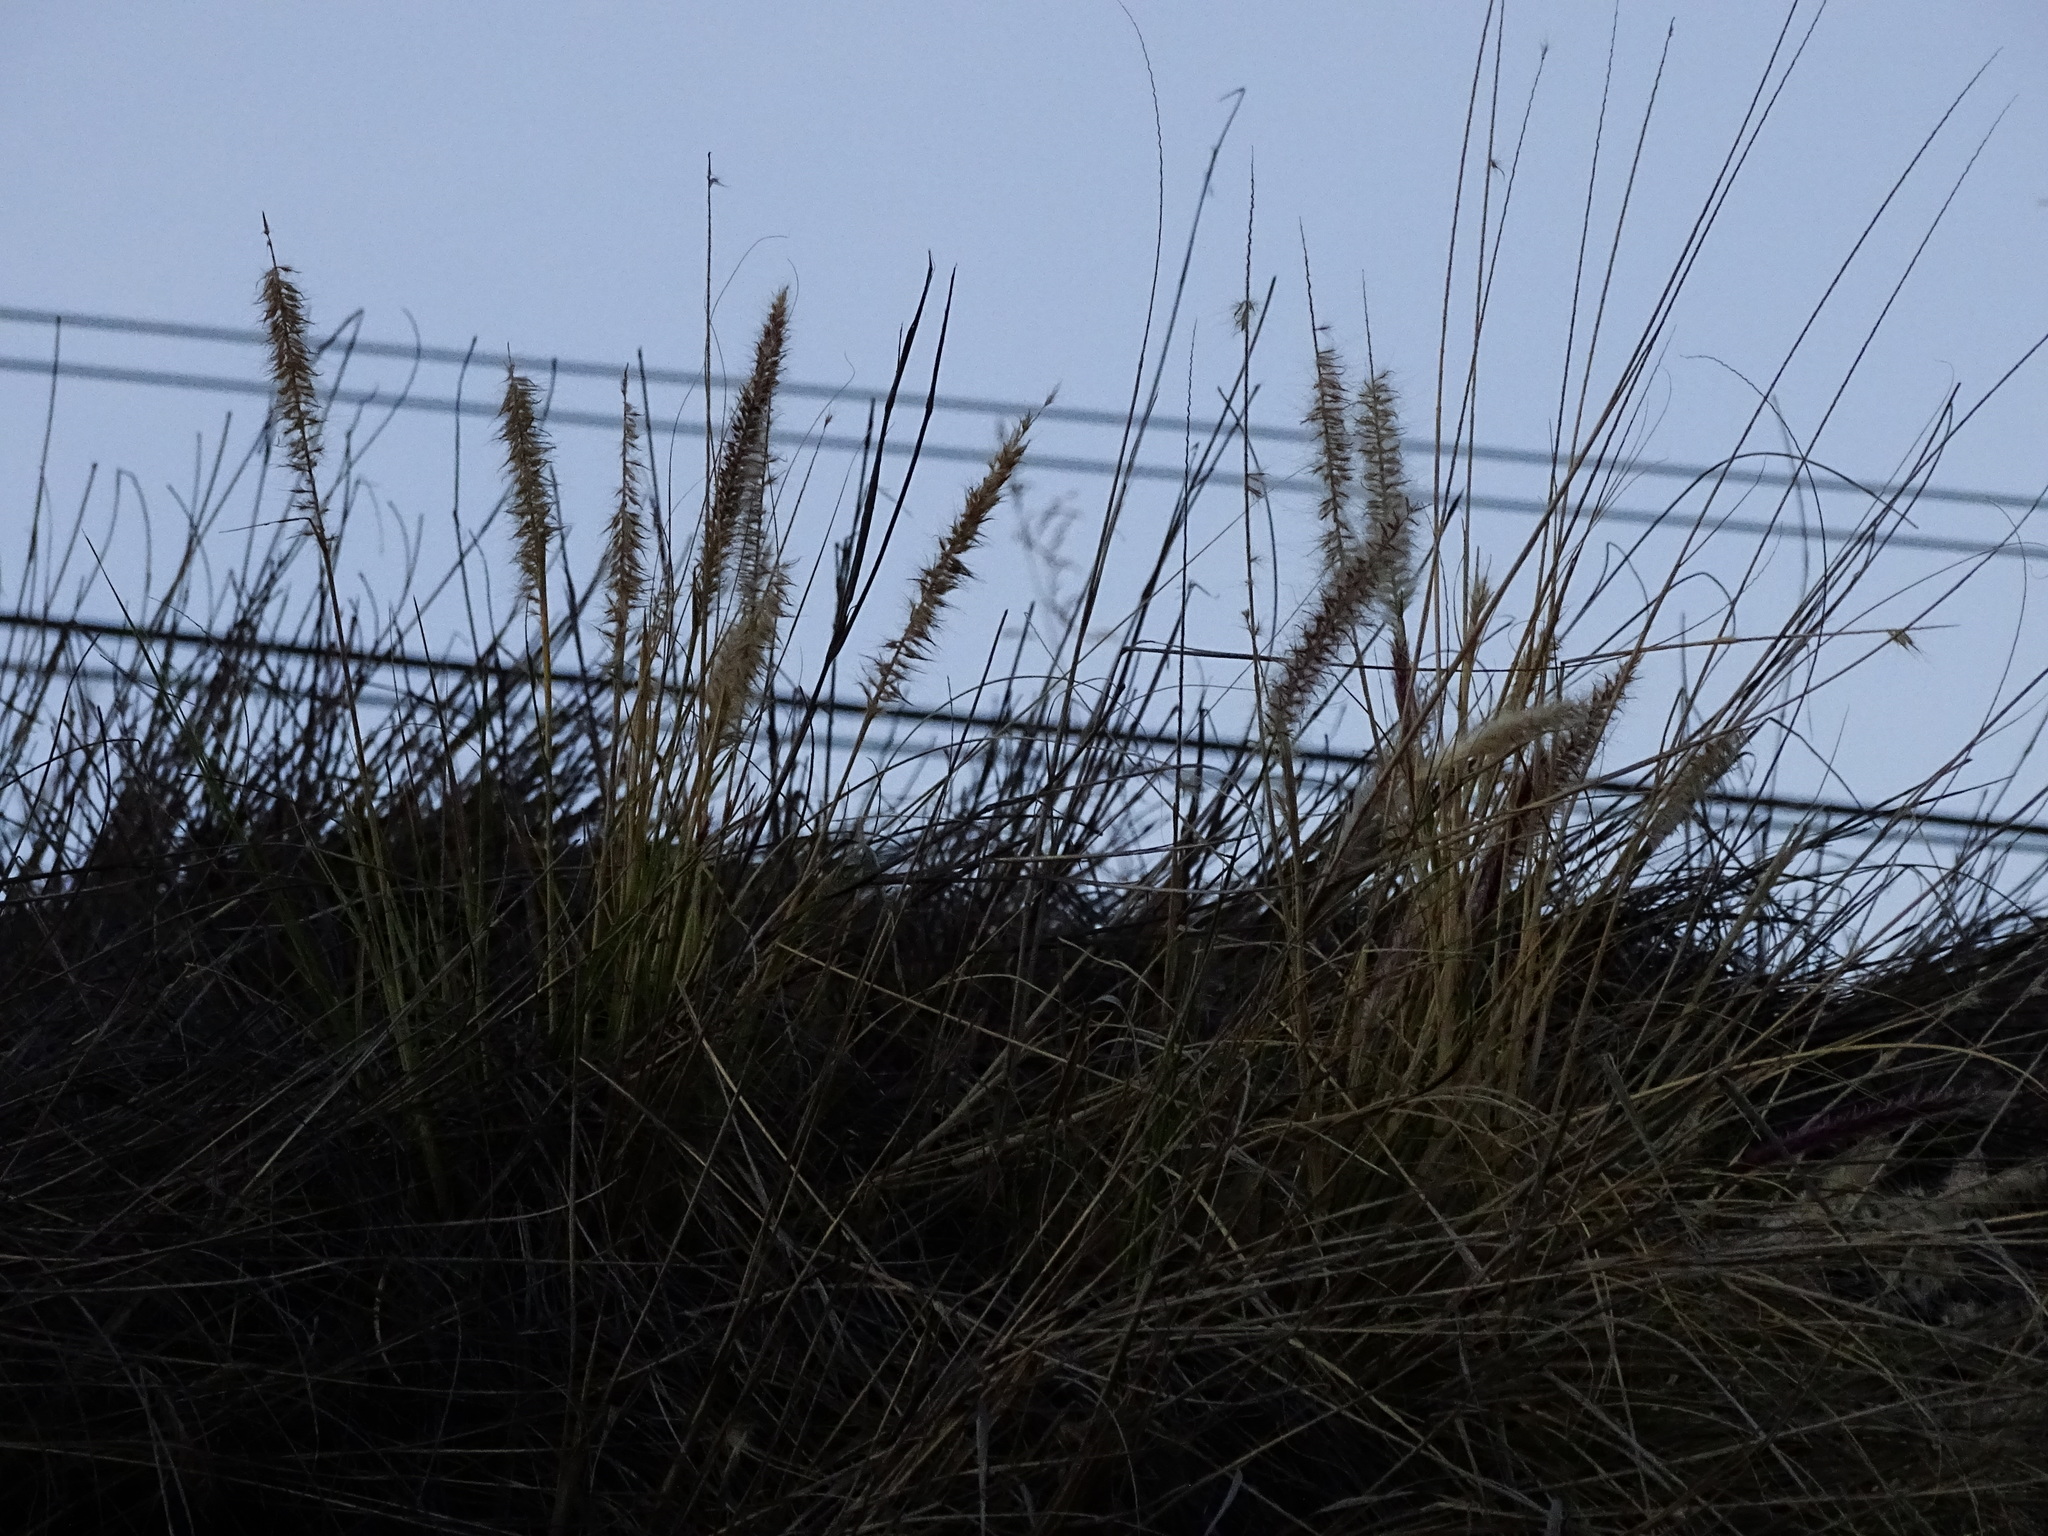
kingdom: Plantae
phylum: Tracheophyta
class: Liliopsida
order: Poales
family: Poaceae
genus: Cenchrus
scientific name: Cenchrus setaceus
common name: Crimson fountaingrass
